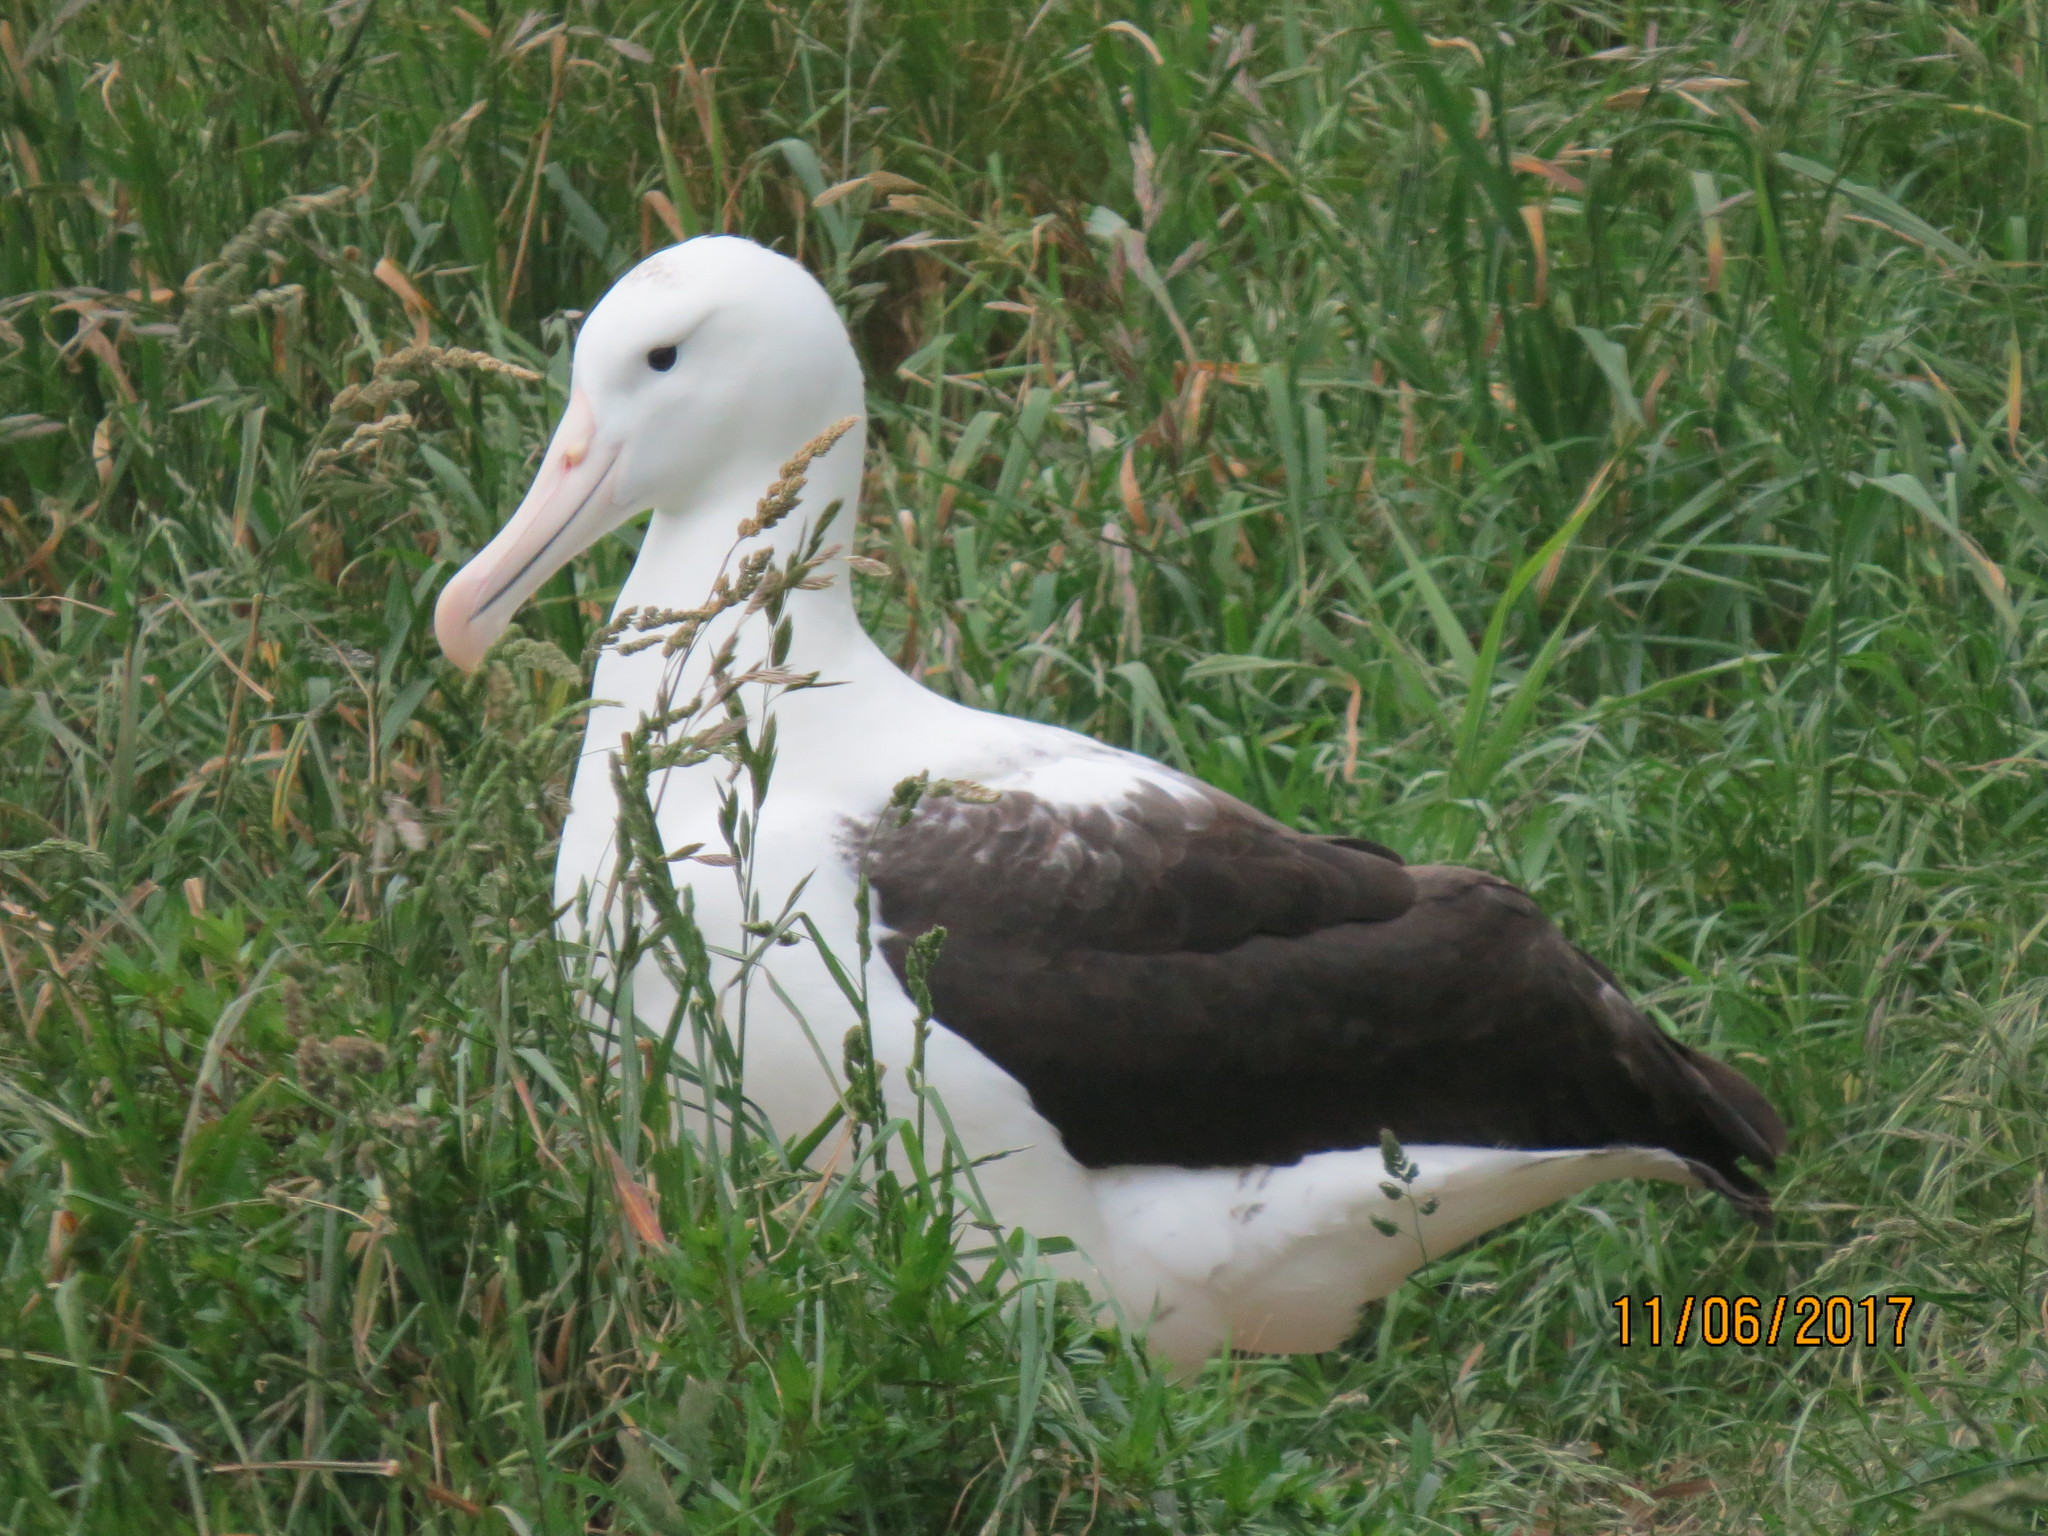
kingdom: Animalia
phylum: Chordata
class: Aves
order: Procellariiformes
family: Diomedeidae
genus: Diomedea
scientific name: Diomedea sanfordi
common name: Northern royal albatross
